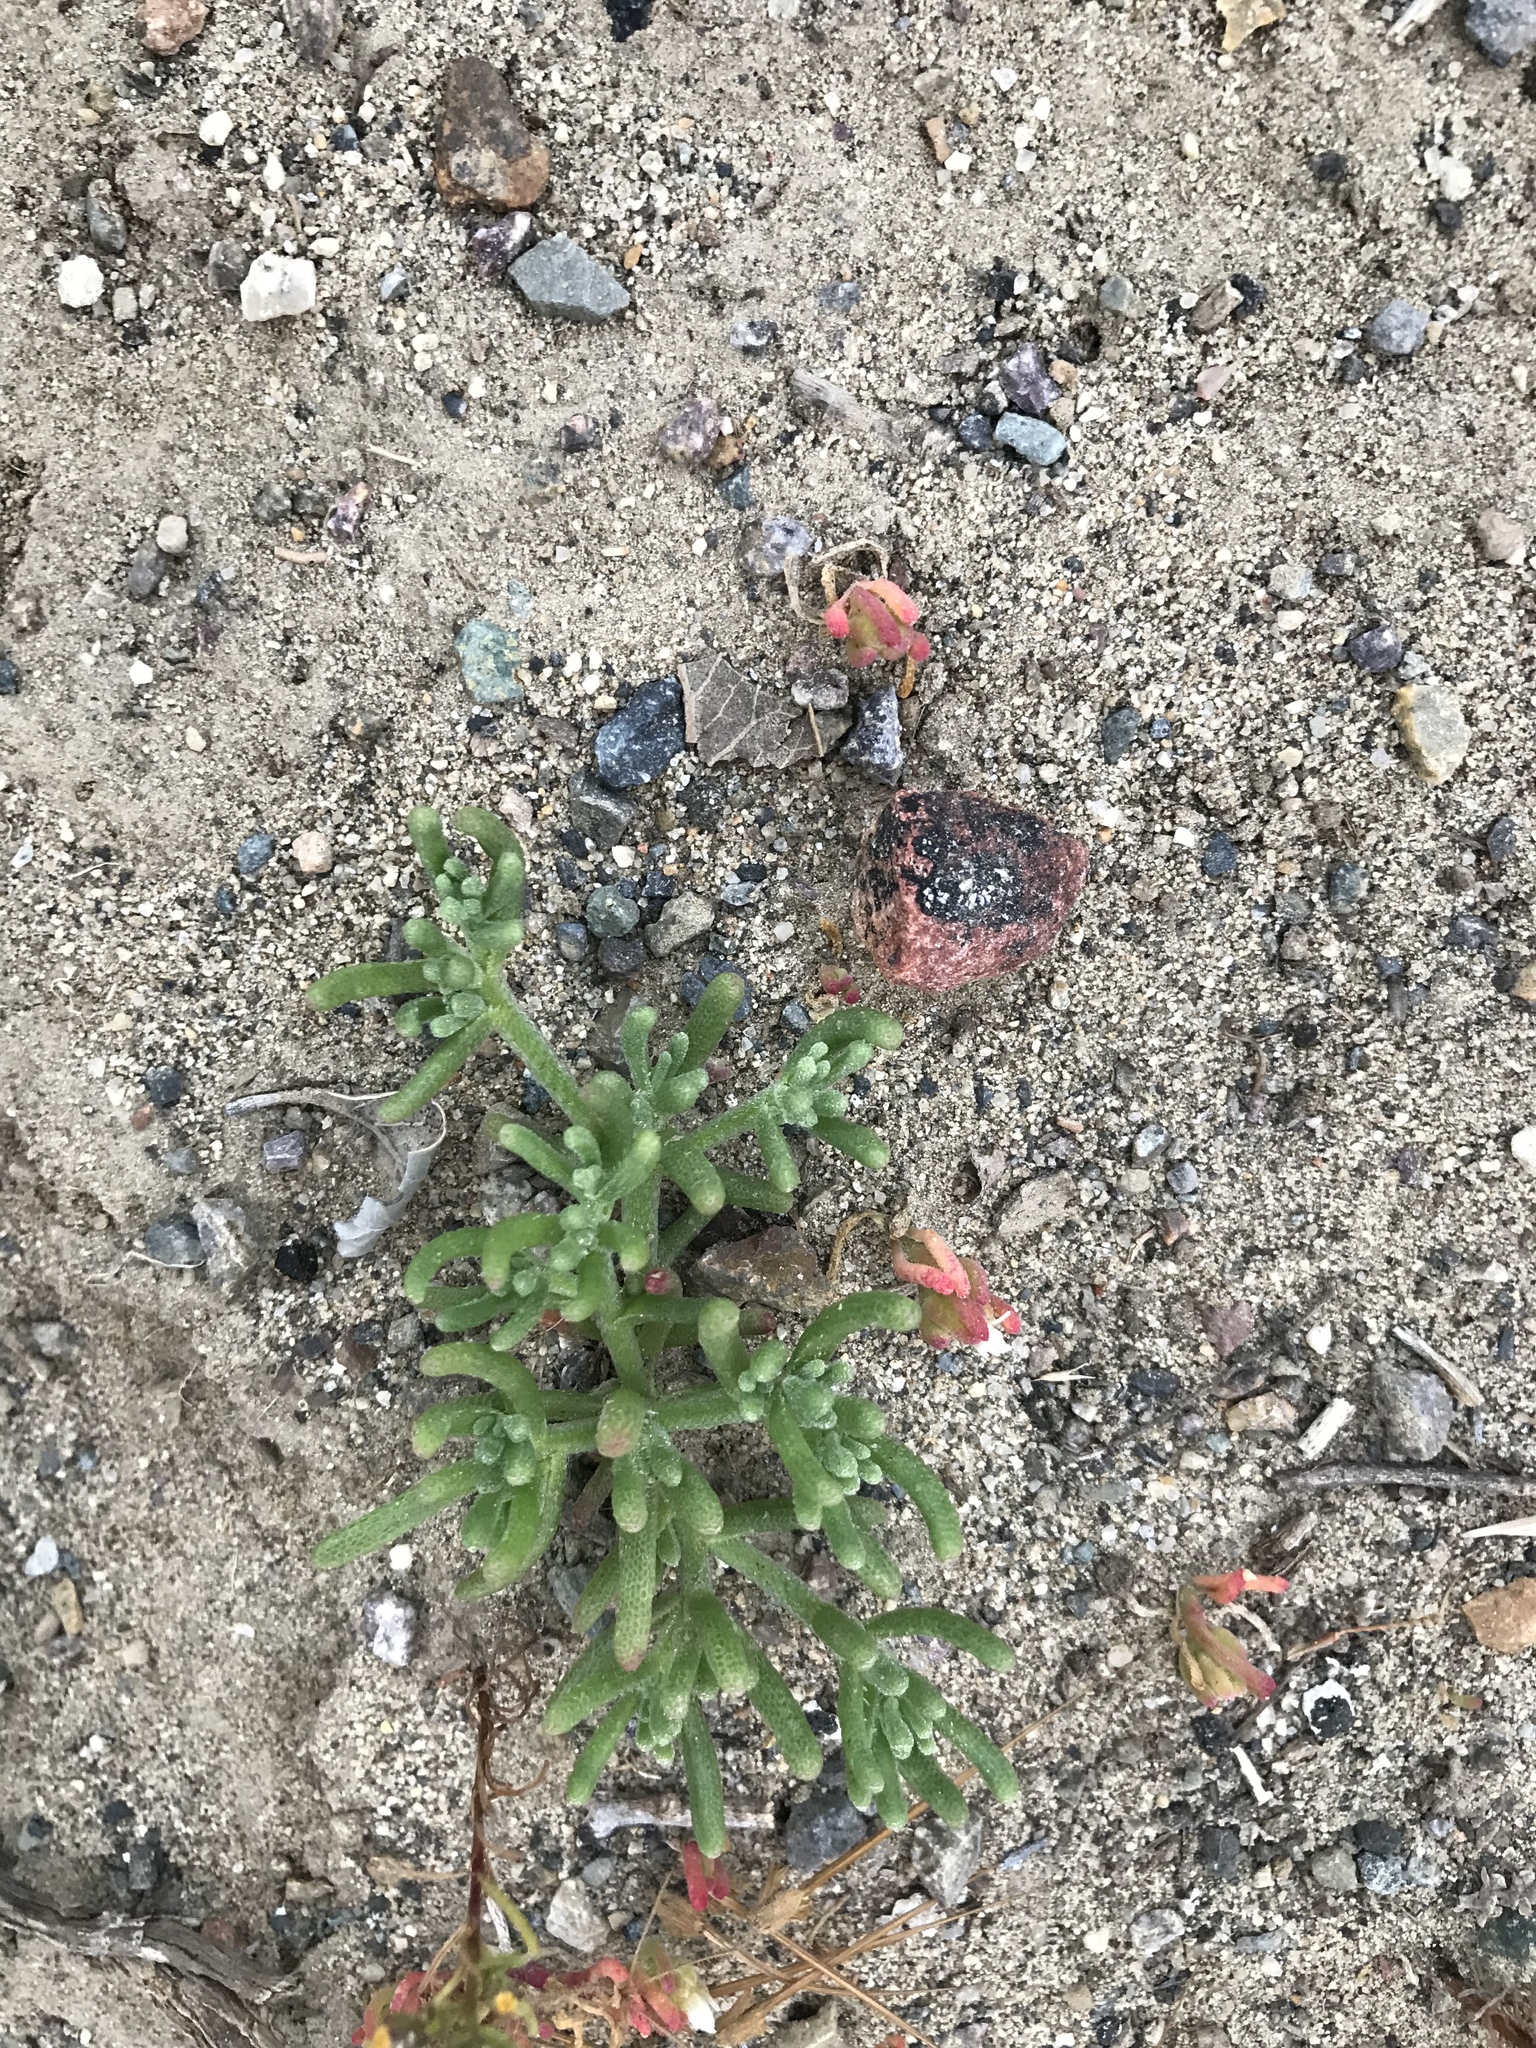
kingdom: Plantae
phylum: Tracheophyta
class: Magnoliopsida
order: Caryophyllales
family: Aizoaceae
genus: Mesembryanthemum
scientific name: Mesembryanthemum nodiflorum
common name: Slenderleaf iceplant
